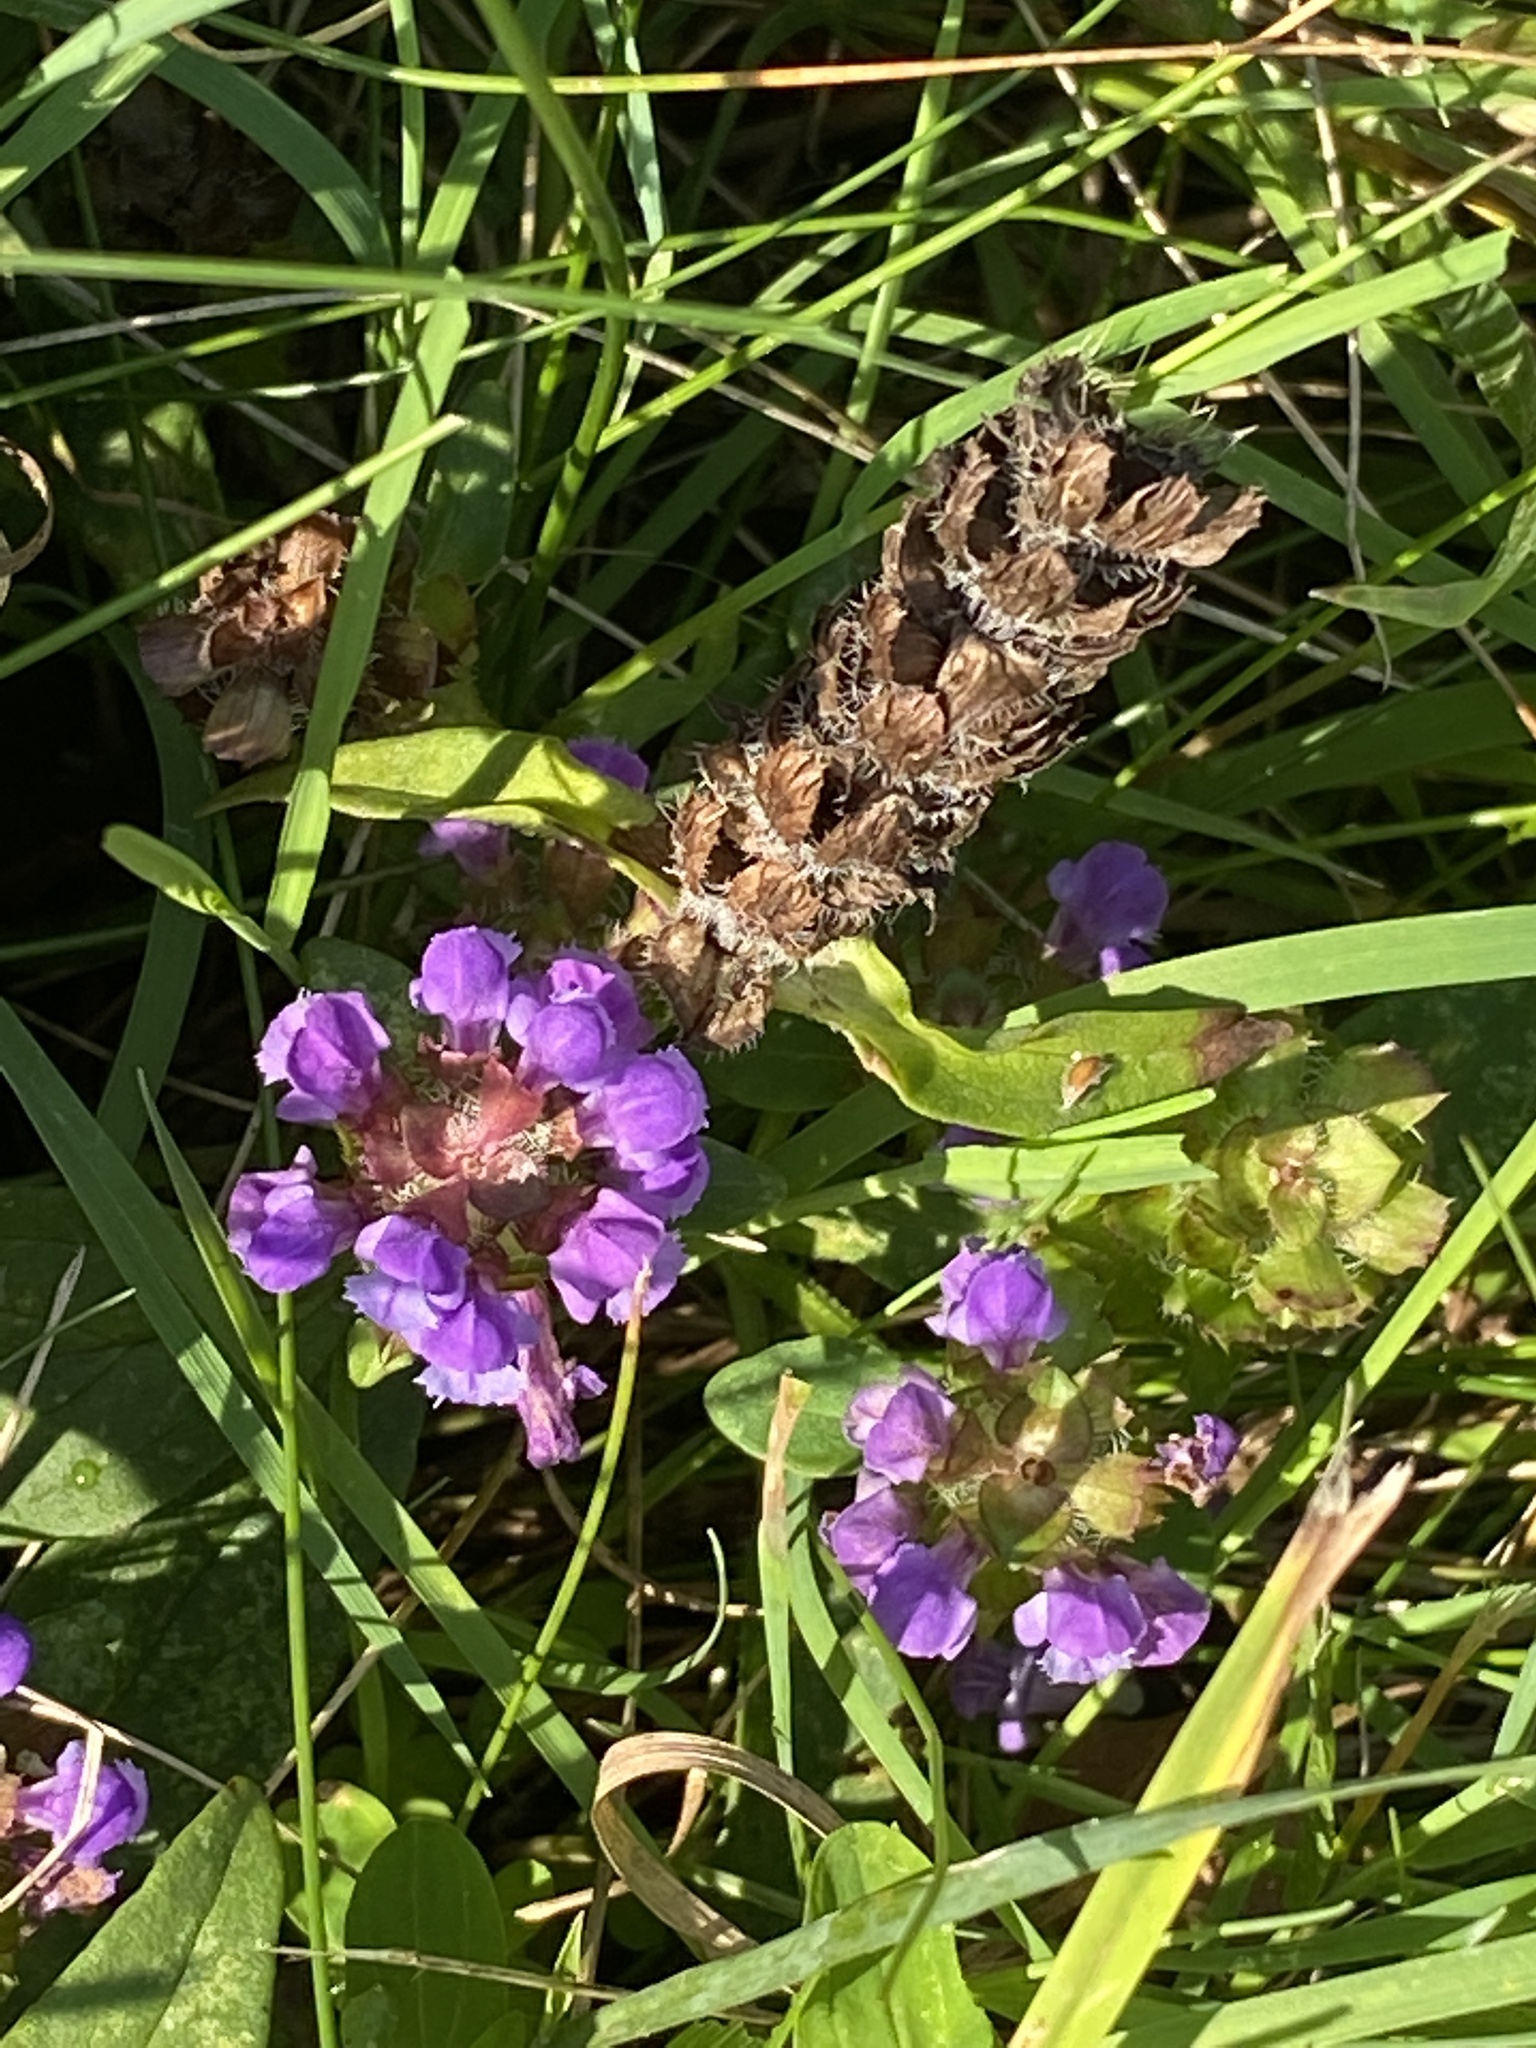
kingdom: Plantae
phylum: Tracheophyta
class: Magnoliopsida
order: Lamiales
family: Lamiaceae
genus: Prunella
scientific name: Prunella vulgaris
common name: Heal-all
